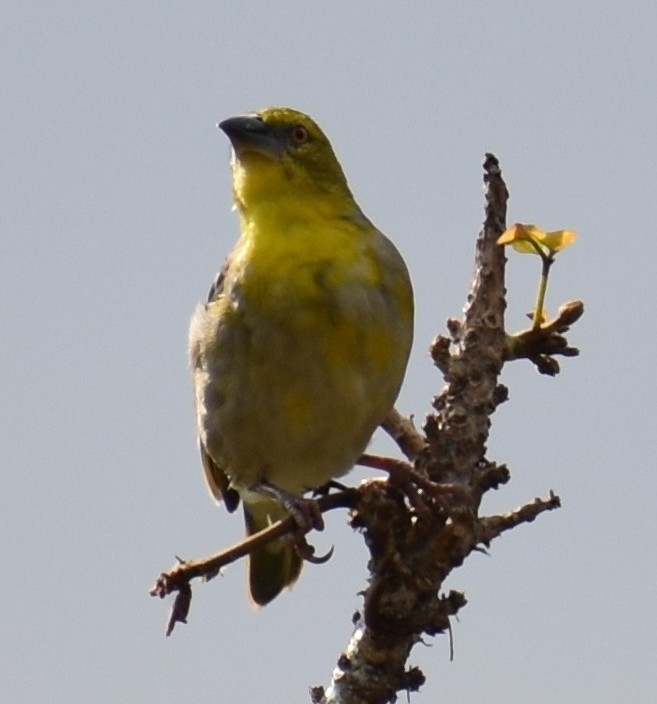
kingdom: Animalia
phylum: Chordata
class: Aves
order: Passeriformes
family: Ploceidae
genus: Ploceus
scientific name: Ploceus cucullatus
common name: Village weaver
